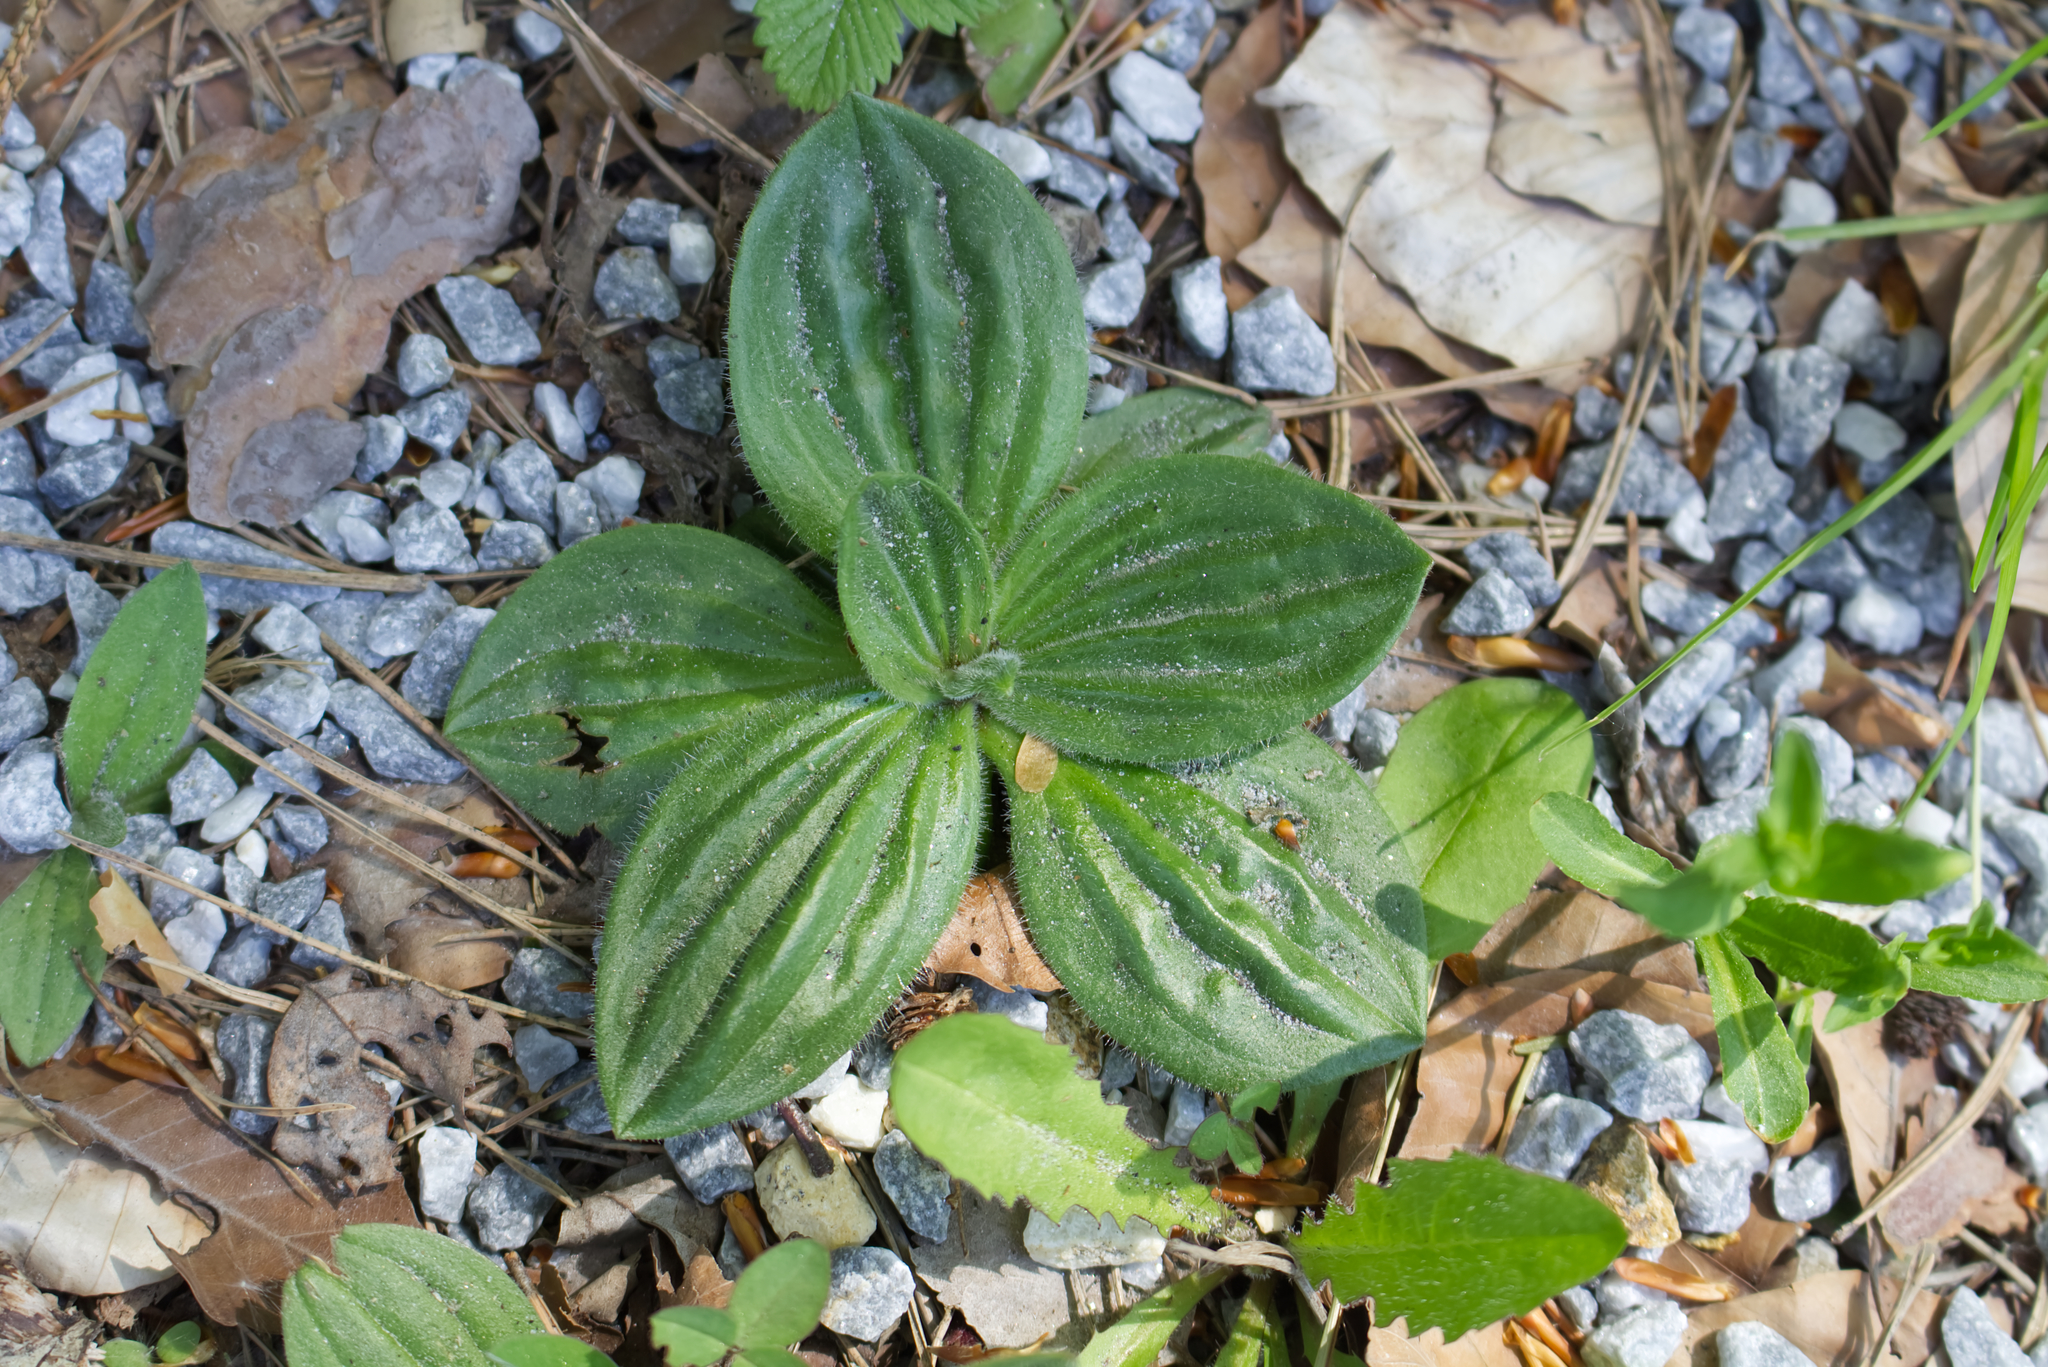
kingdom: Plantae
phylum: Tracheophyta
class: Magnoliopsida
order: Lamiales
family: Plantaginaceae
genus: Plantago
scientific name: Plantago media
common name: Hoary plantain
